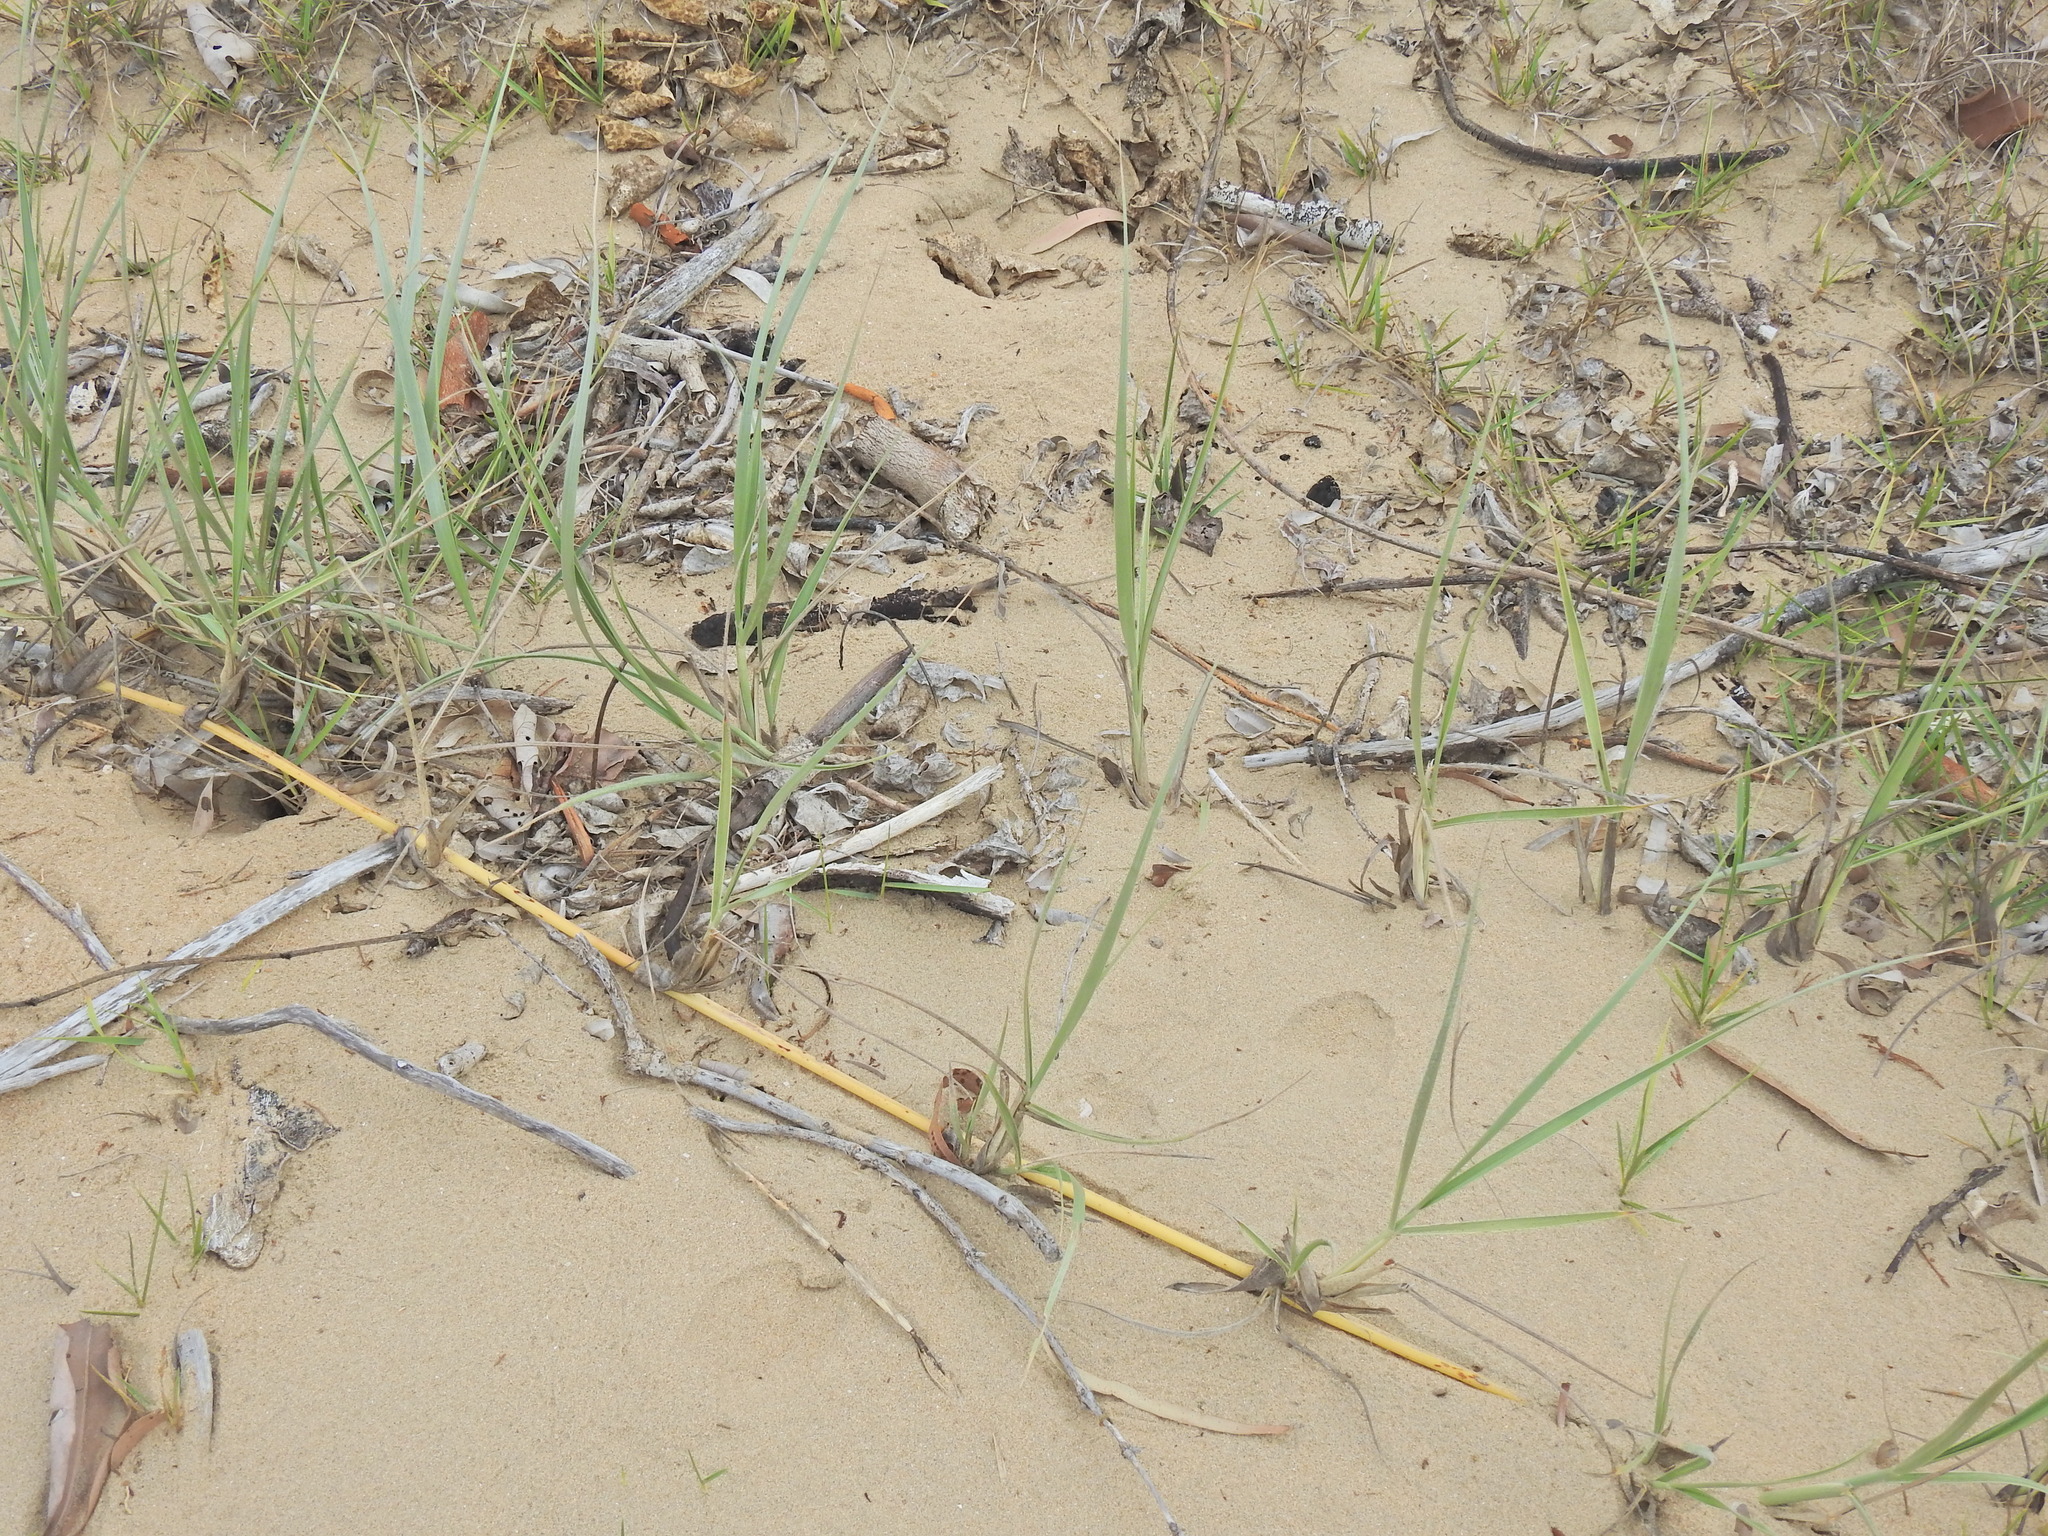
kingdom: Plantae
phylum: Tracheophyta
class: Liliopsida
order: Poales
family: Poaceae
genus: Spinifex
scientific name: Spinifex sericeus
